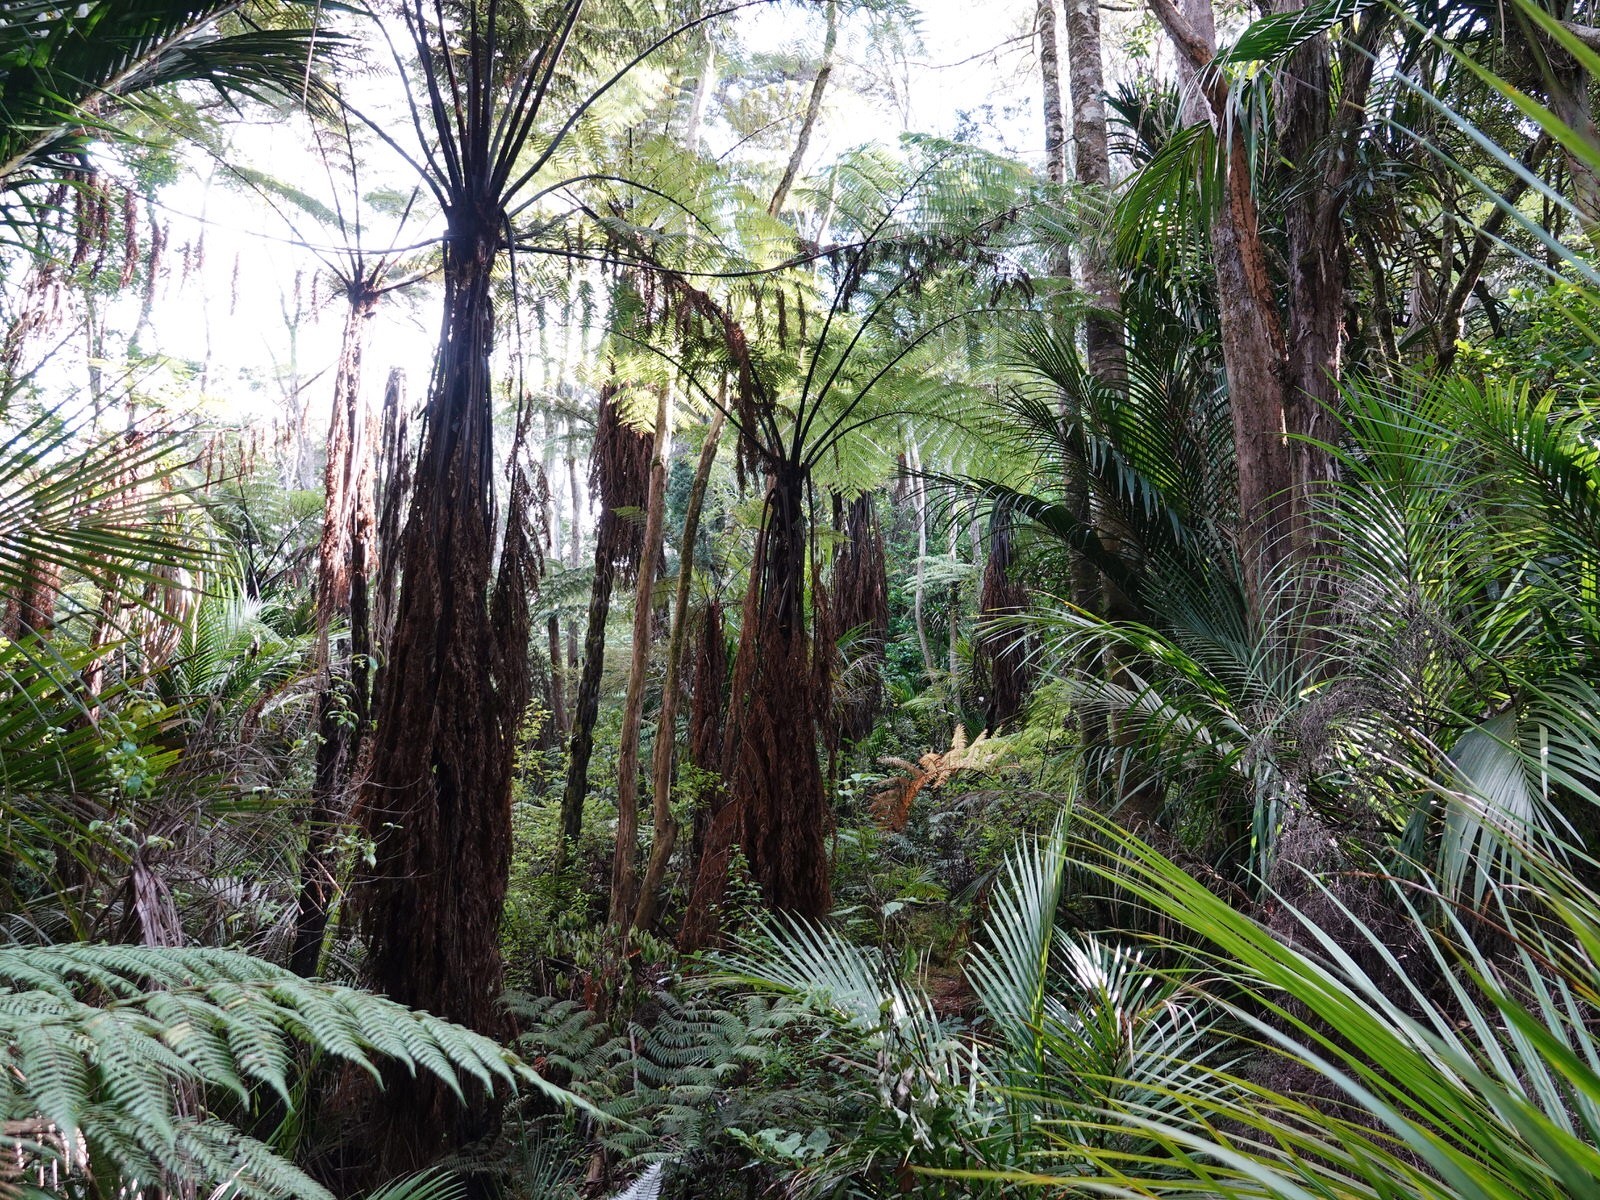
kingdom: Plantae
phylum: Tracheophyta
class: Polypodiopsida
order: Cyatheales
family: Cyatheaceae
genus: Sphaeropteris
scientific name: Sphaeropteris medullaris
